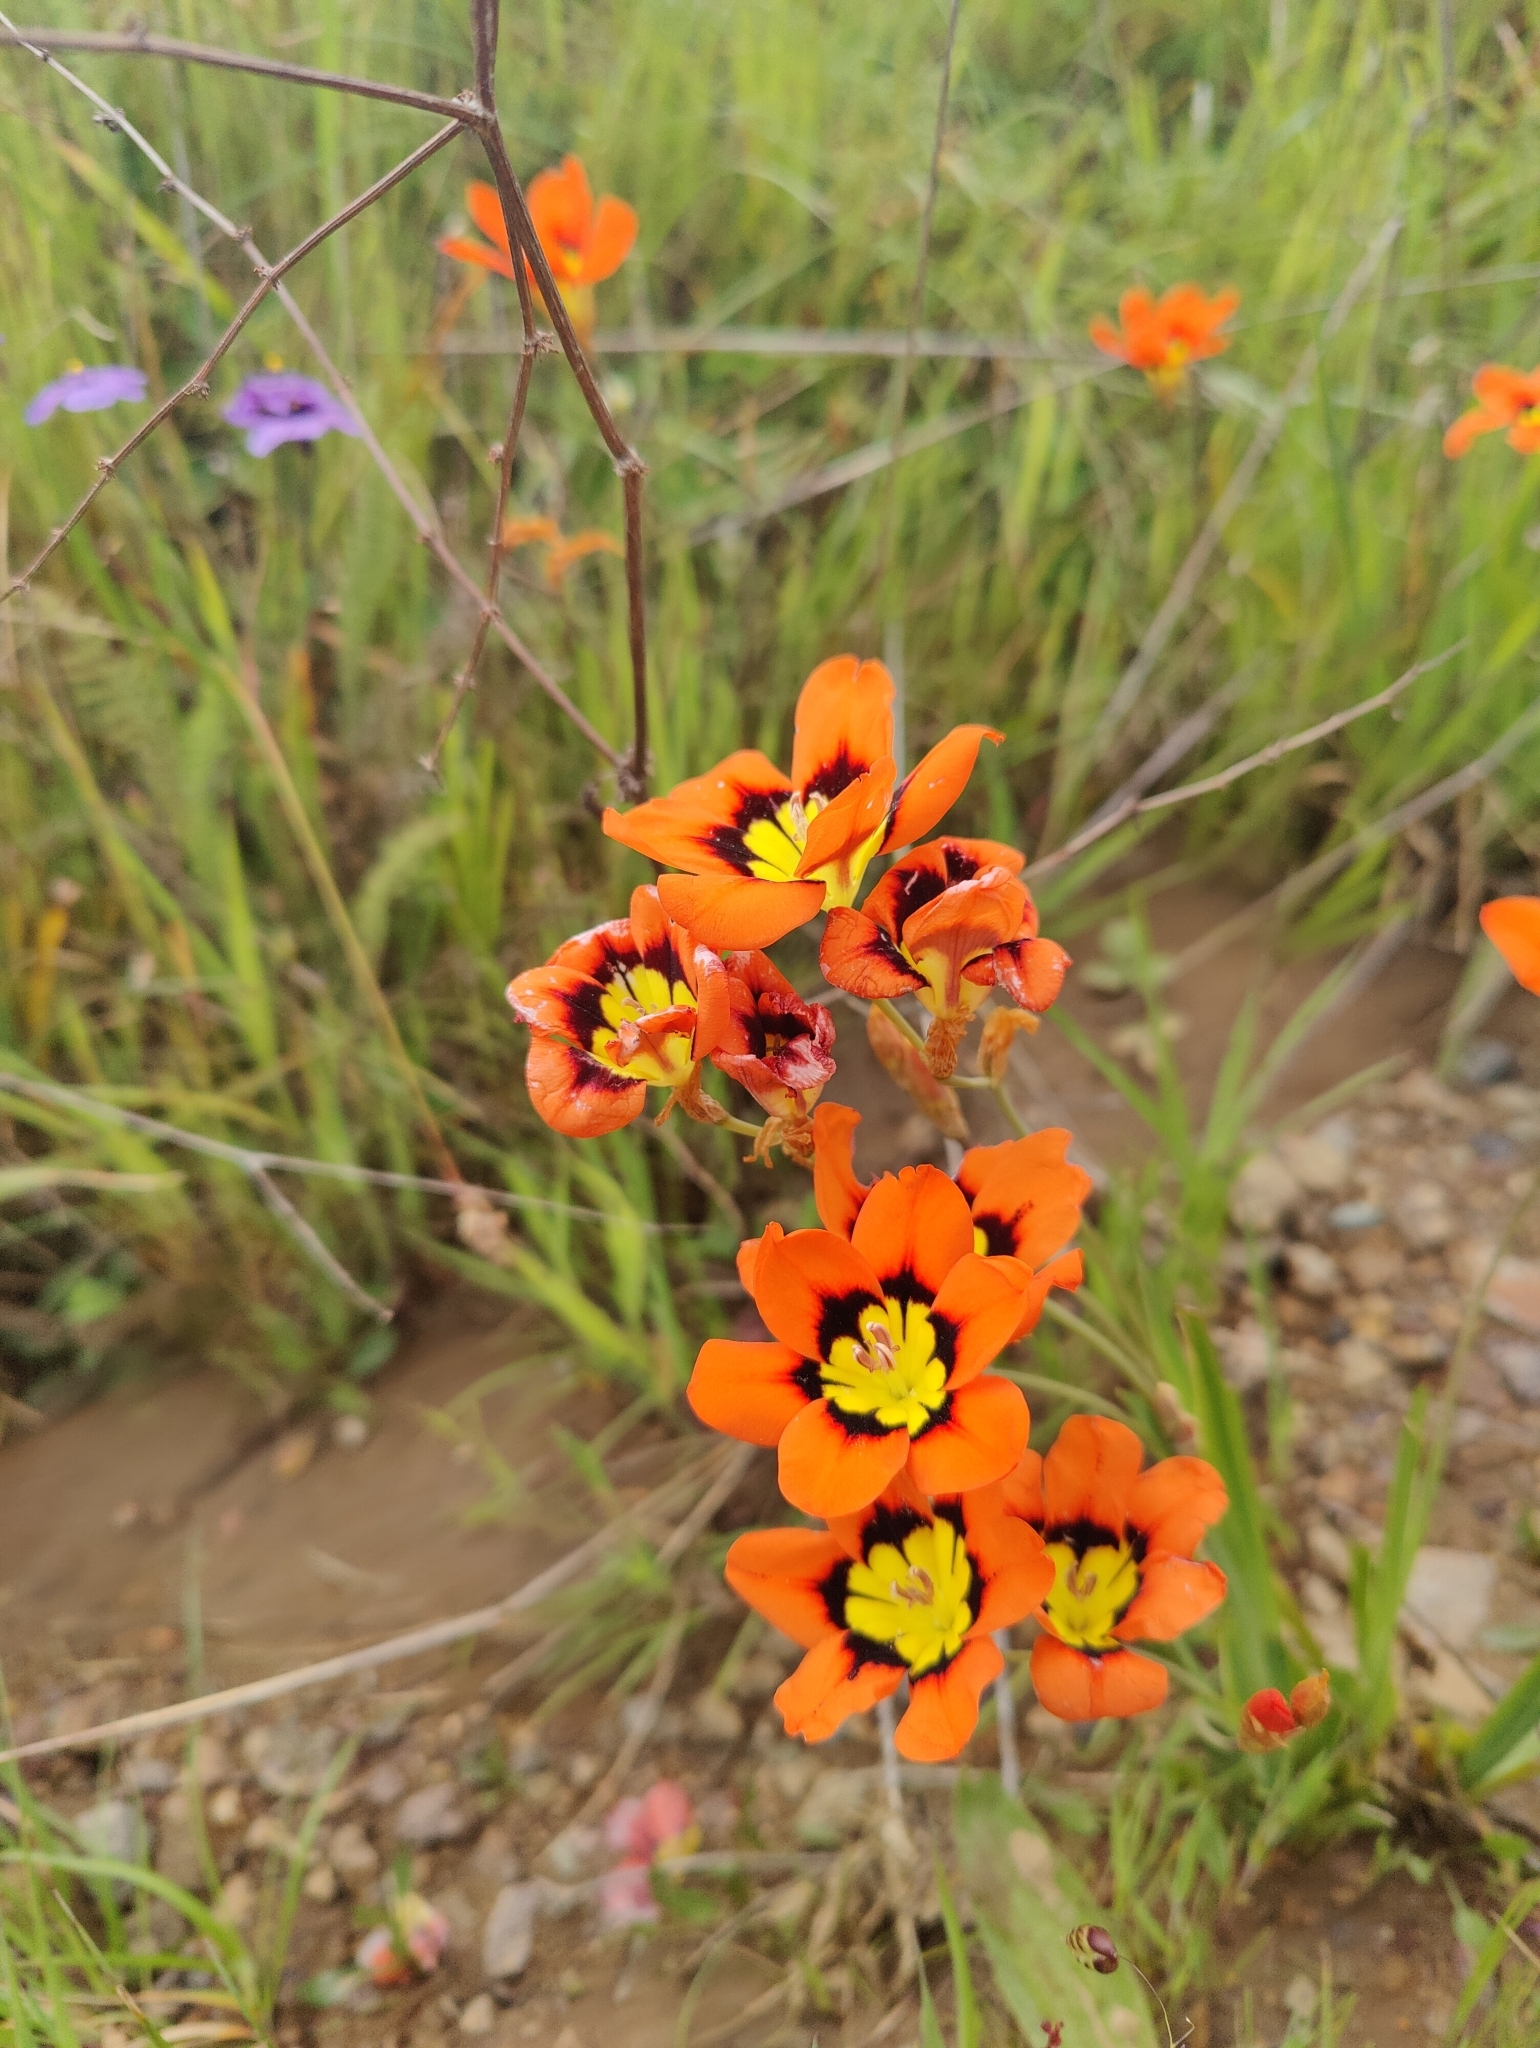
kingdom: Plantae
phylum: Tracheophyta
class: Liliopsida
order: Asparagales
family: Iridaceae
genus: Sparaxis
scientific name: Sparaxis tricolor
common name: Wandflower
